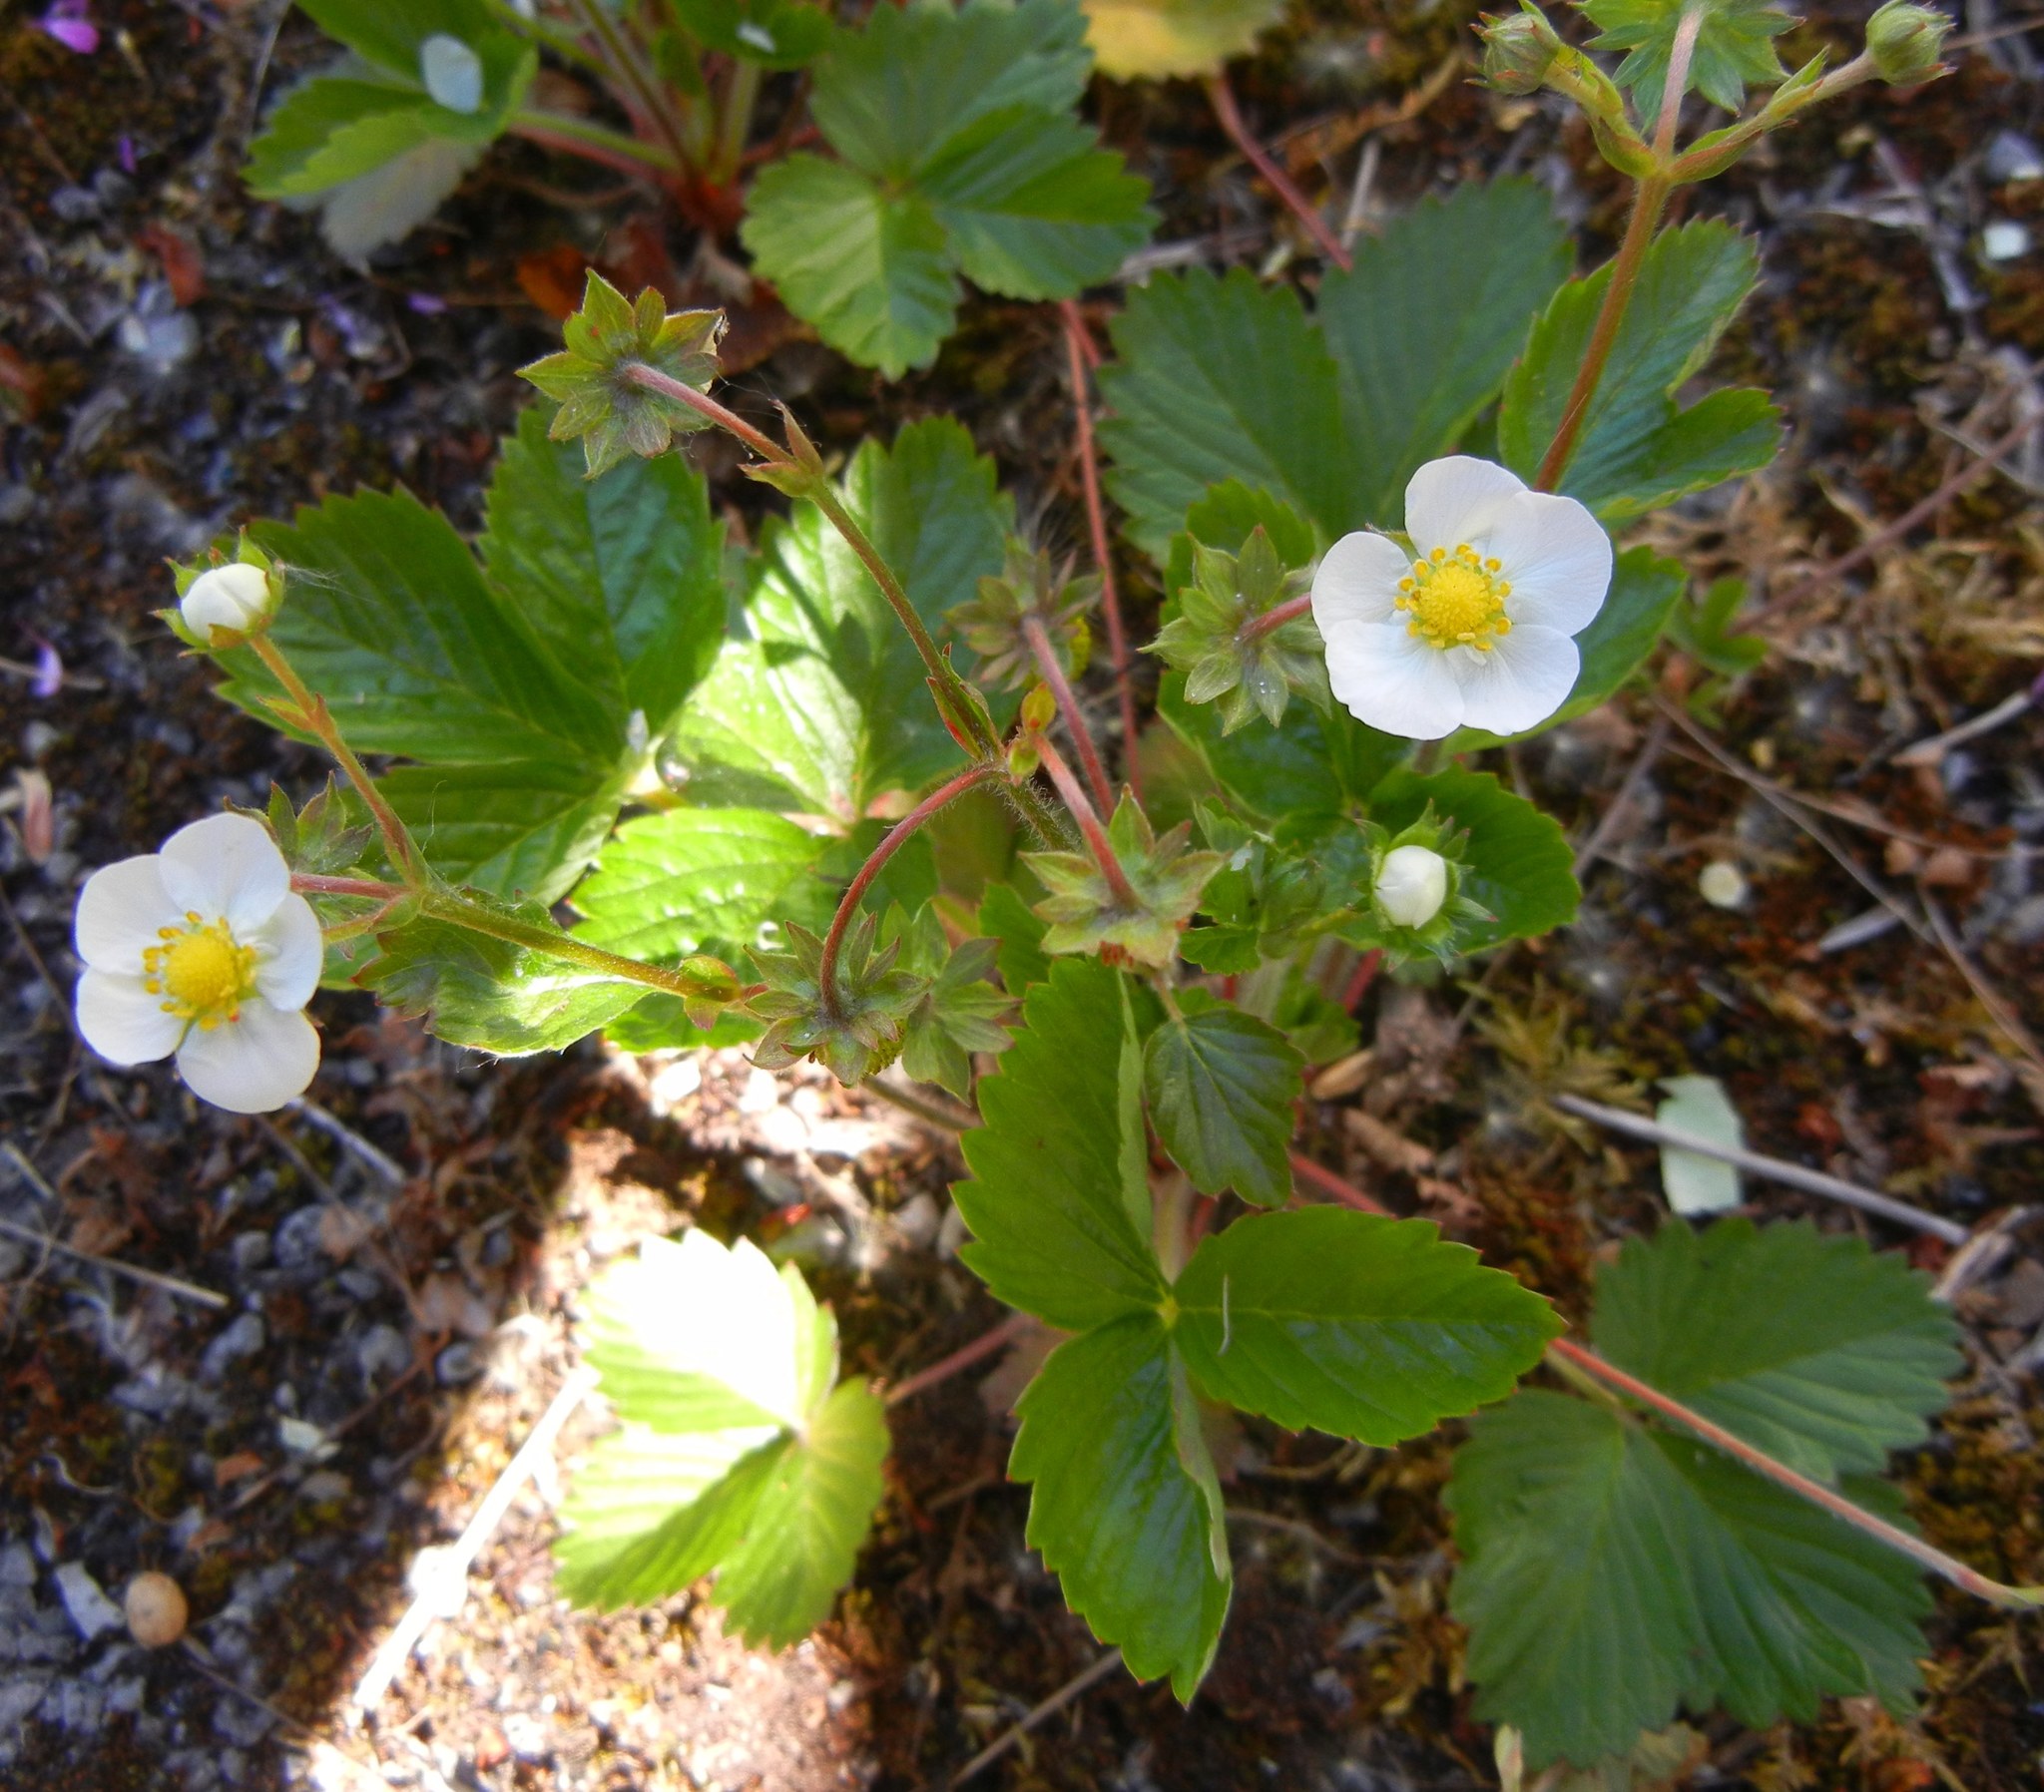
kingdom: Plantae
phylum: Tracheophyta
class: Magnoliopsida
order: Rosales
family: Rosaceae
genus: Fragaria
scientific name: Fragaria vesca
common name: Wild strawberry
